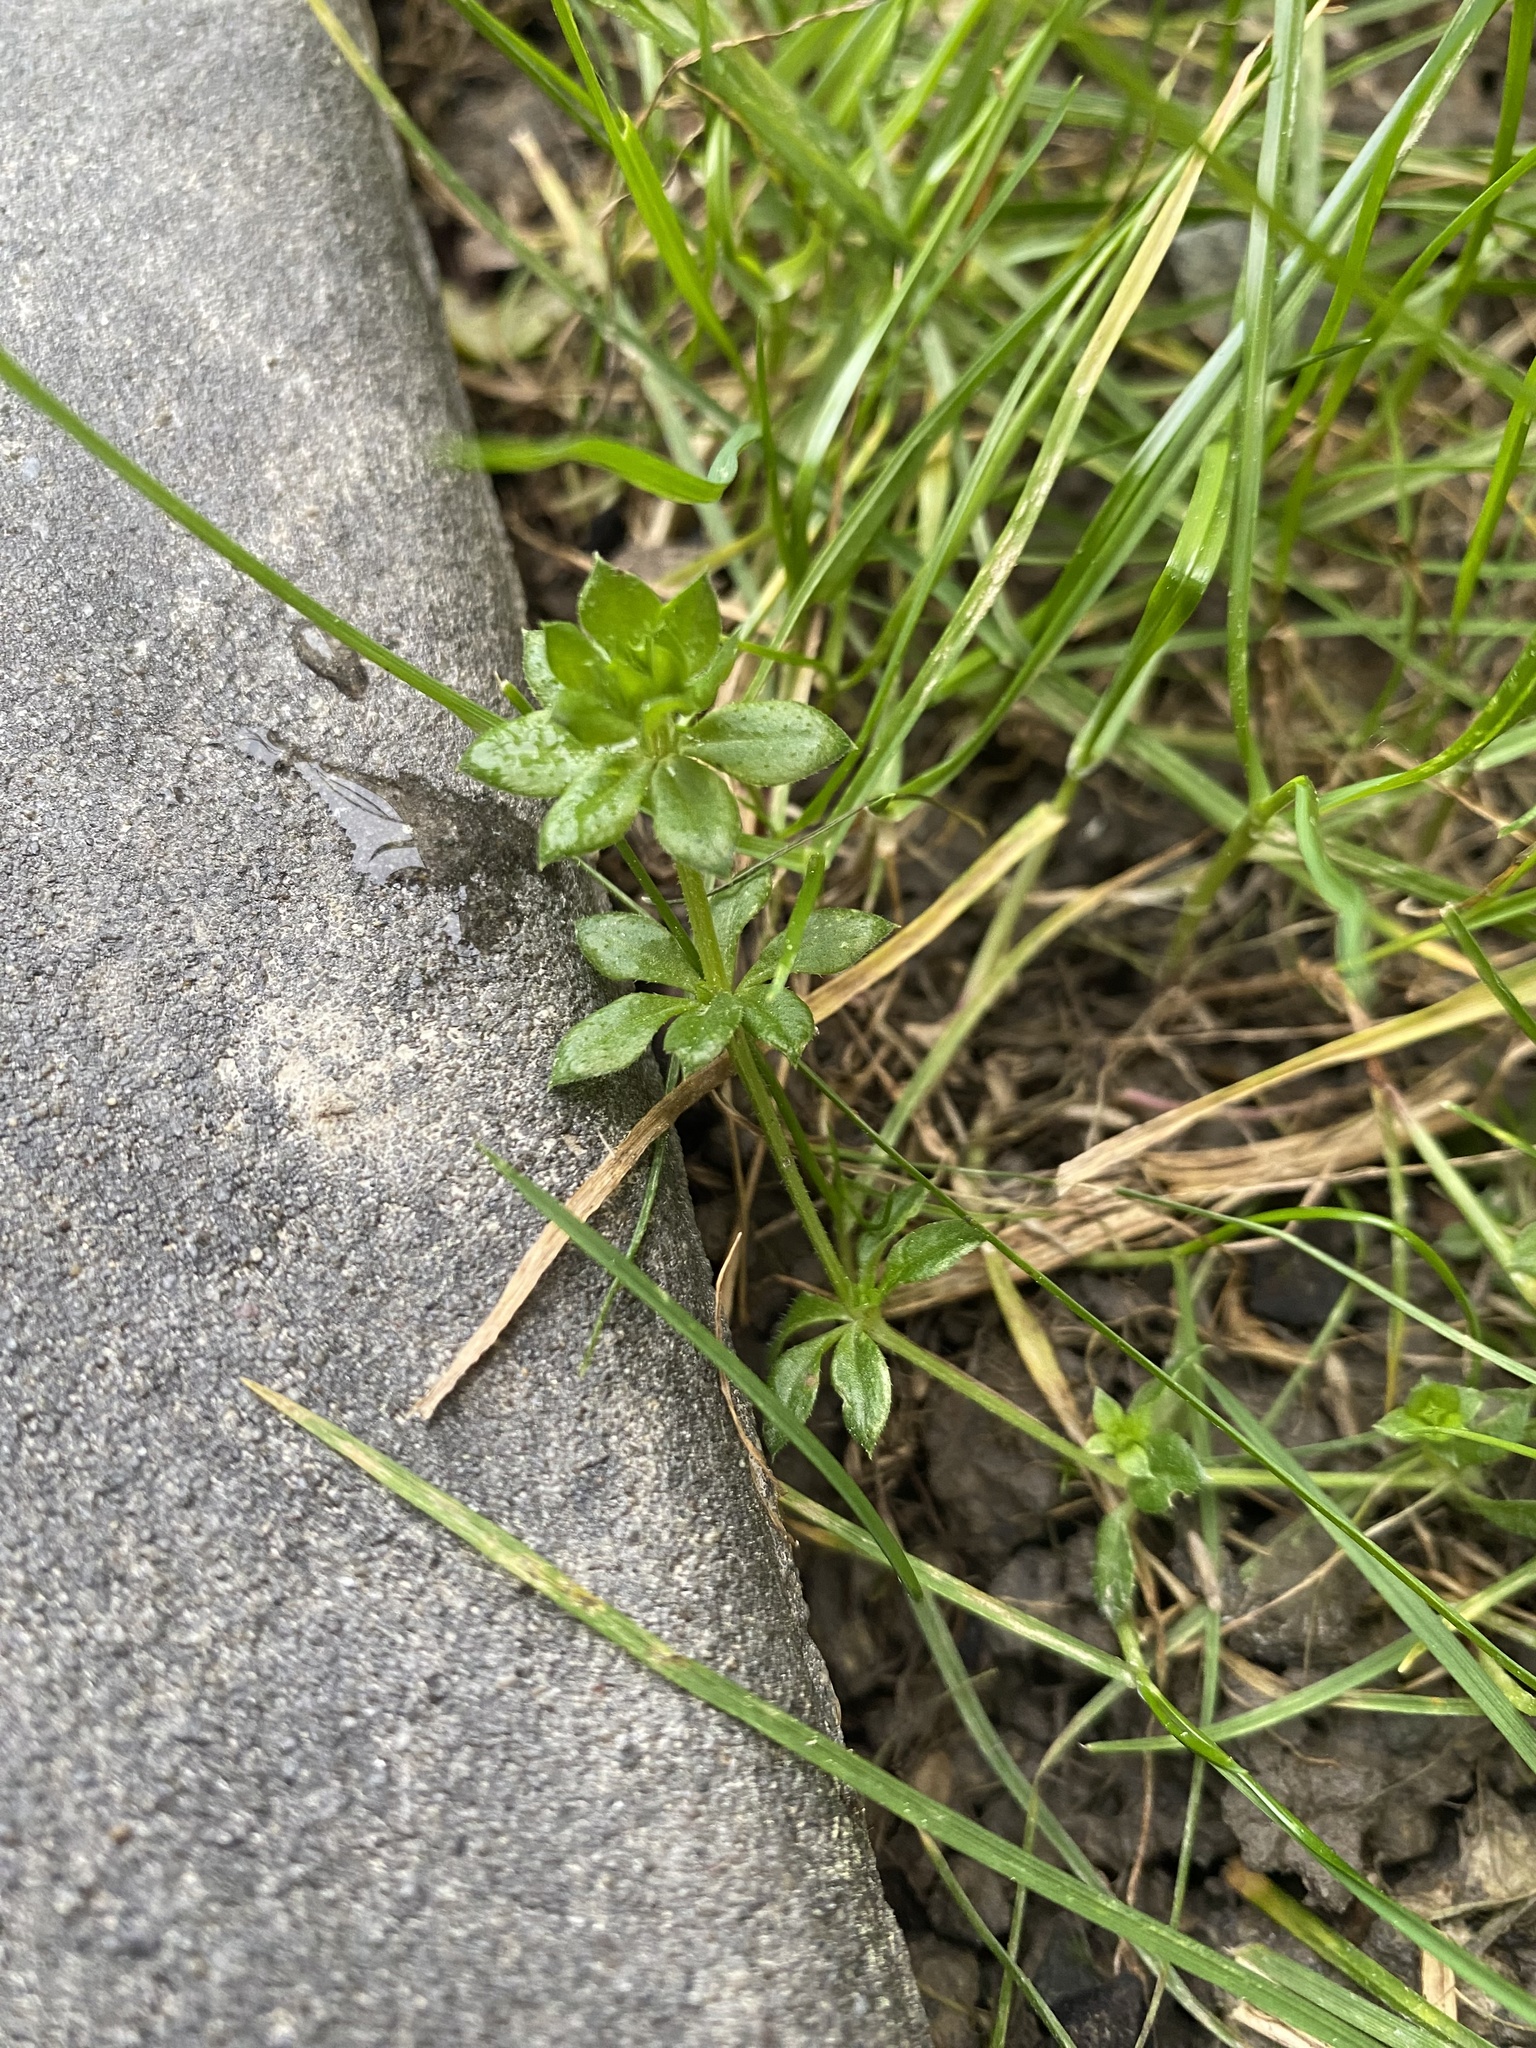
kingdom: Plantae
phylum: Tracheophyta
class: Magnoliopsida
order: Gentianales
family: Rubiaceae
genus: Sherardia
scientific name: Sherardia arvensis
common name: Field madder
